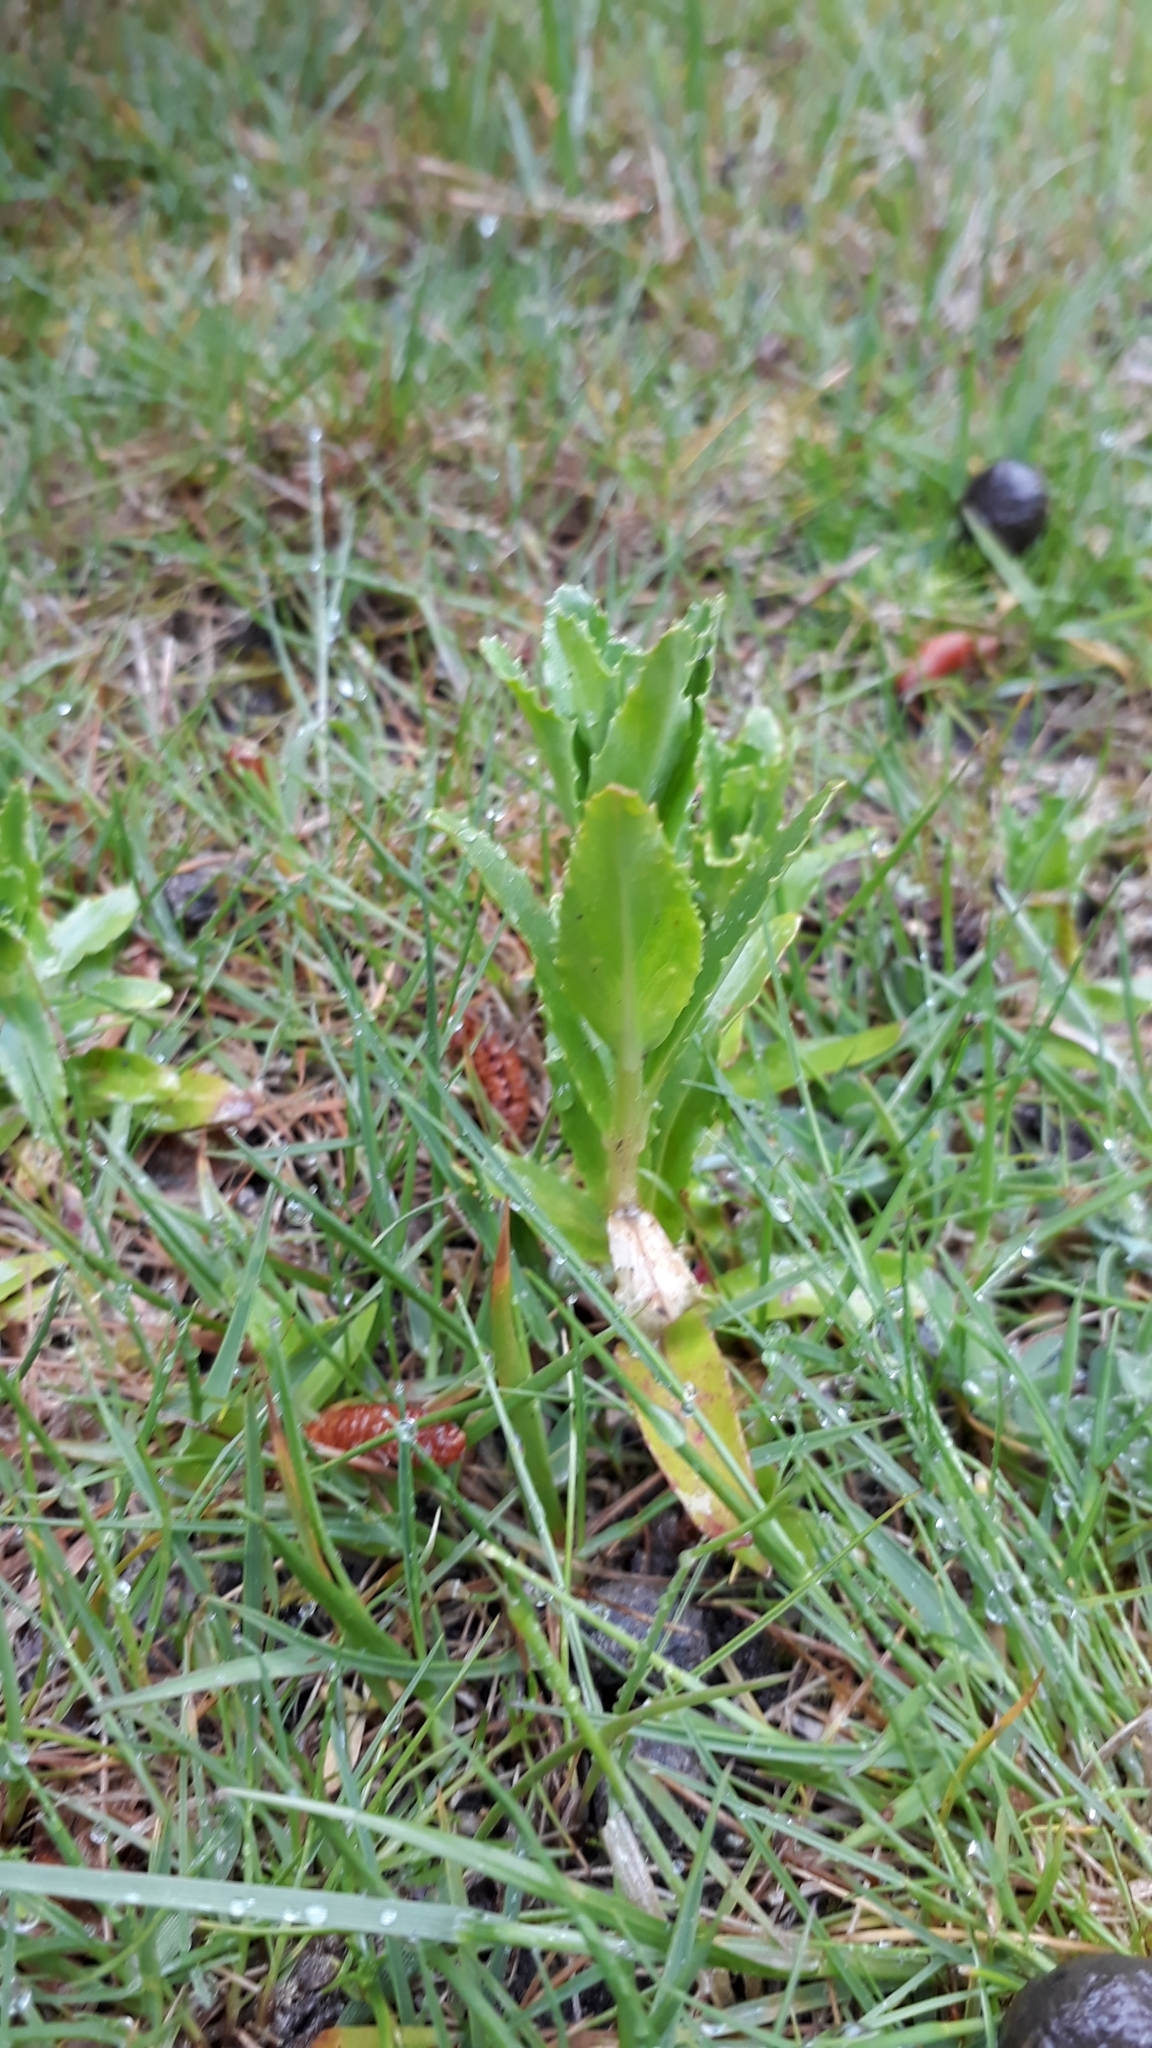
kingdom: Plantae
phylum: Tracheophyta
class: Magnoliopsida
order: Myrtales
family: Onagraceae
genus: Epilobium
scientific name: Epilobium billardiereanum
